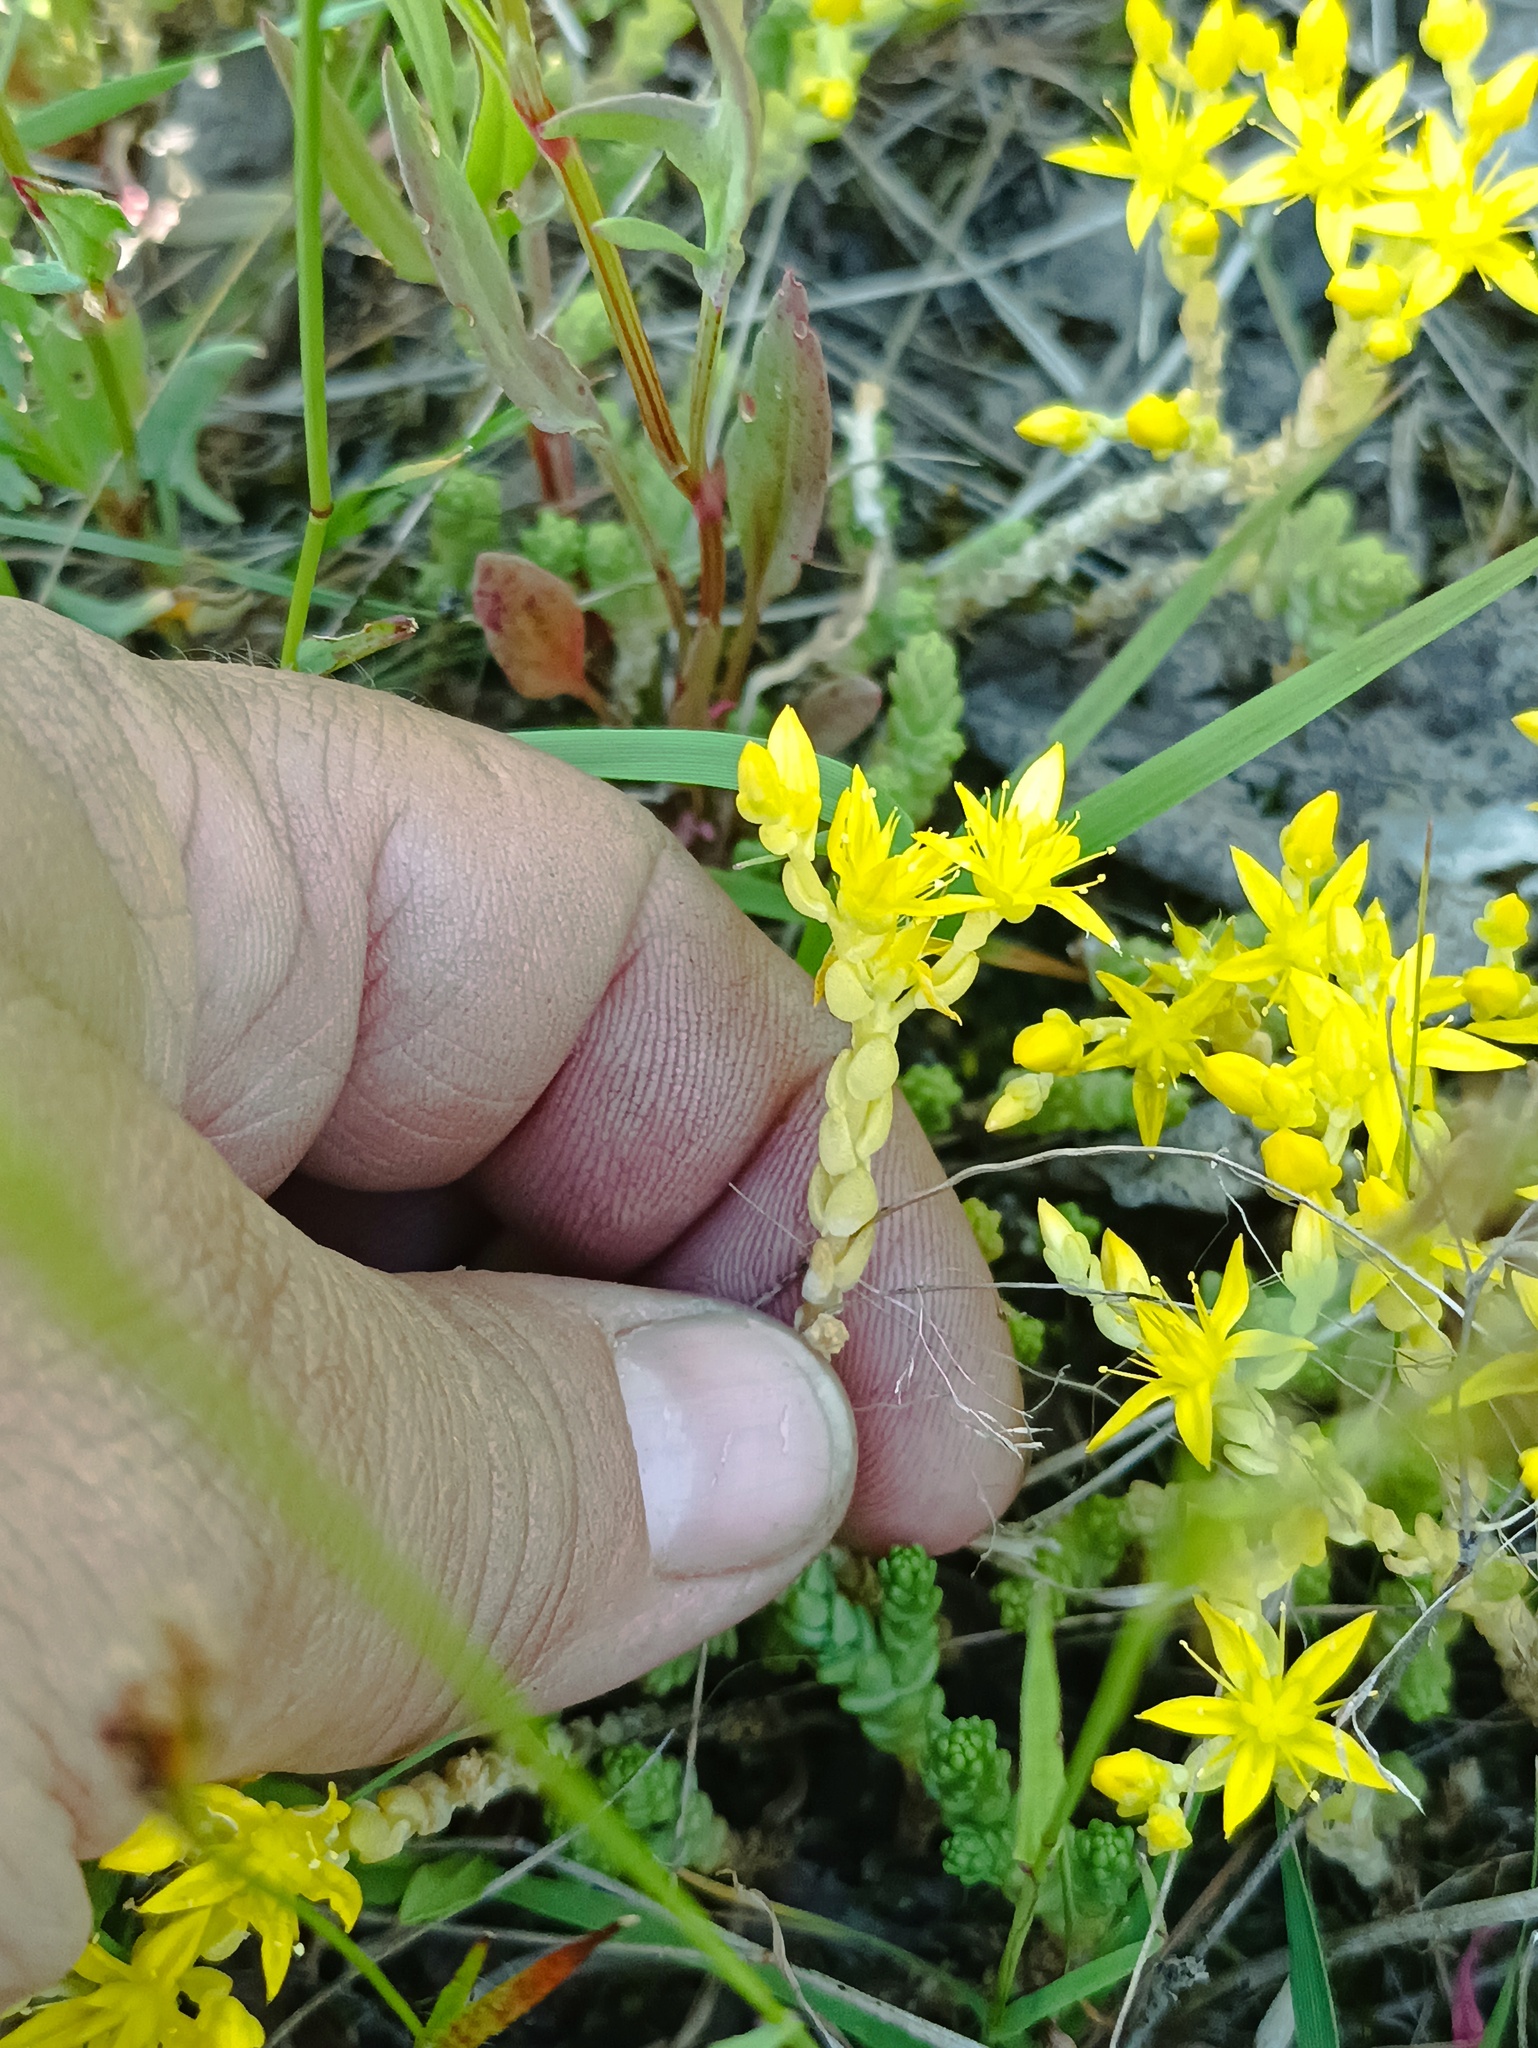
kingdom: Plantae
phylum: Tracheophyta
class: Magnoliopsida
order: Saxifragales
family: Crassulaceae
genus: Sedum
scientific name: Sedum acre
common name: Biting stonecrop
